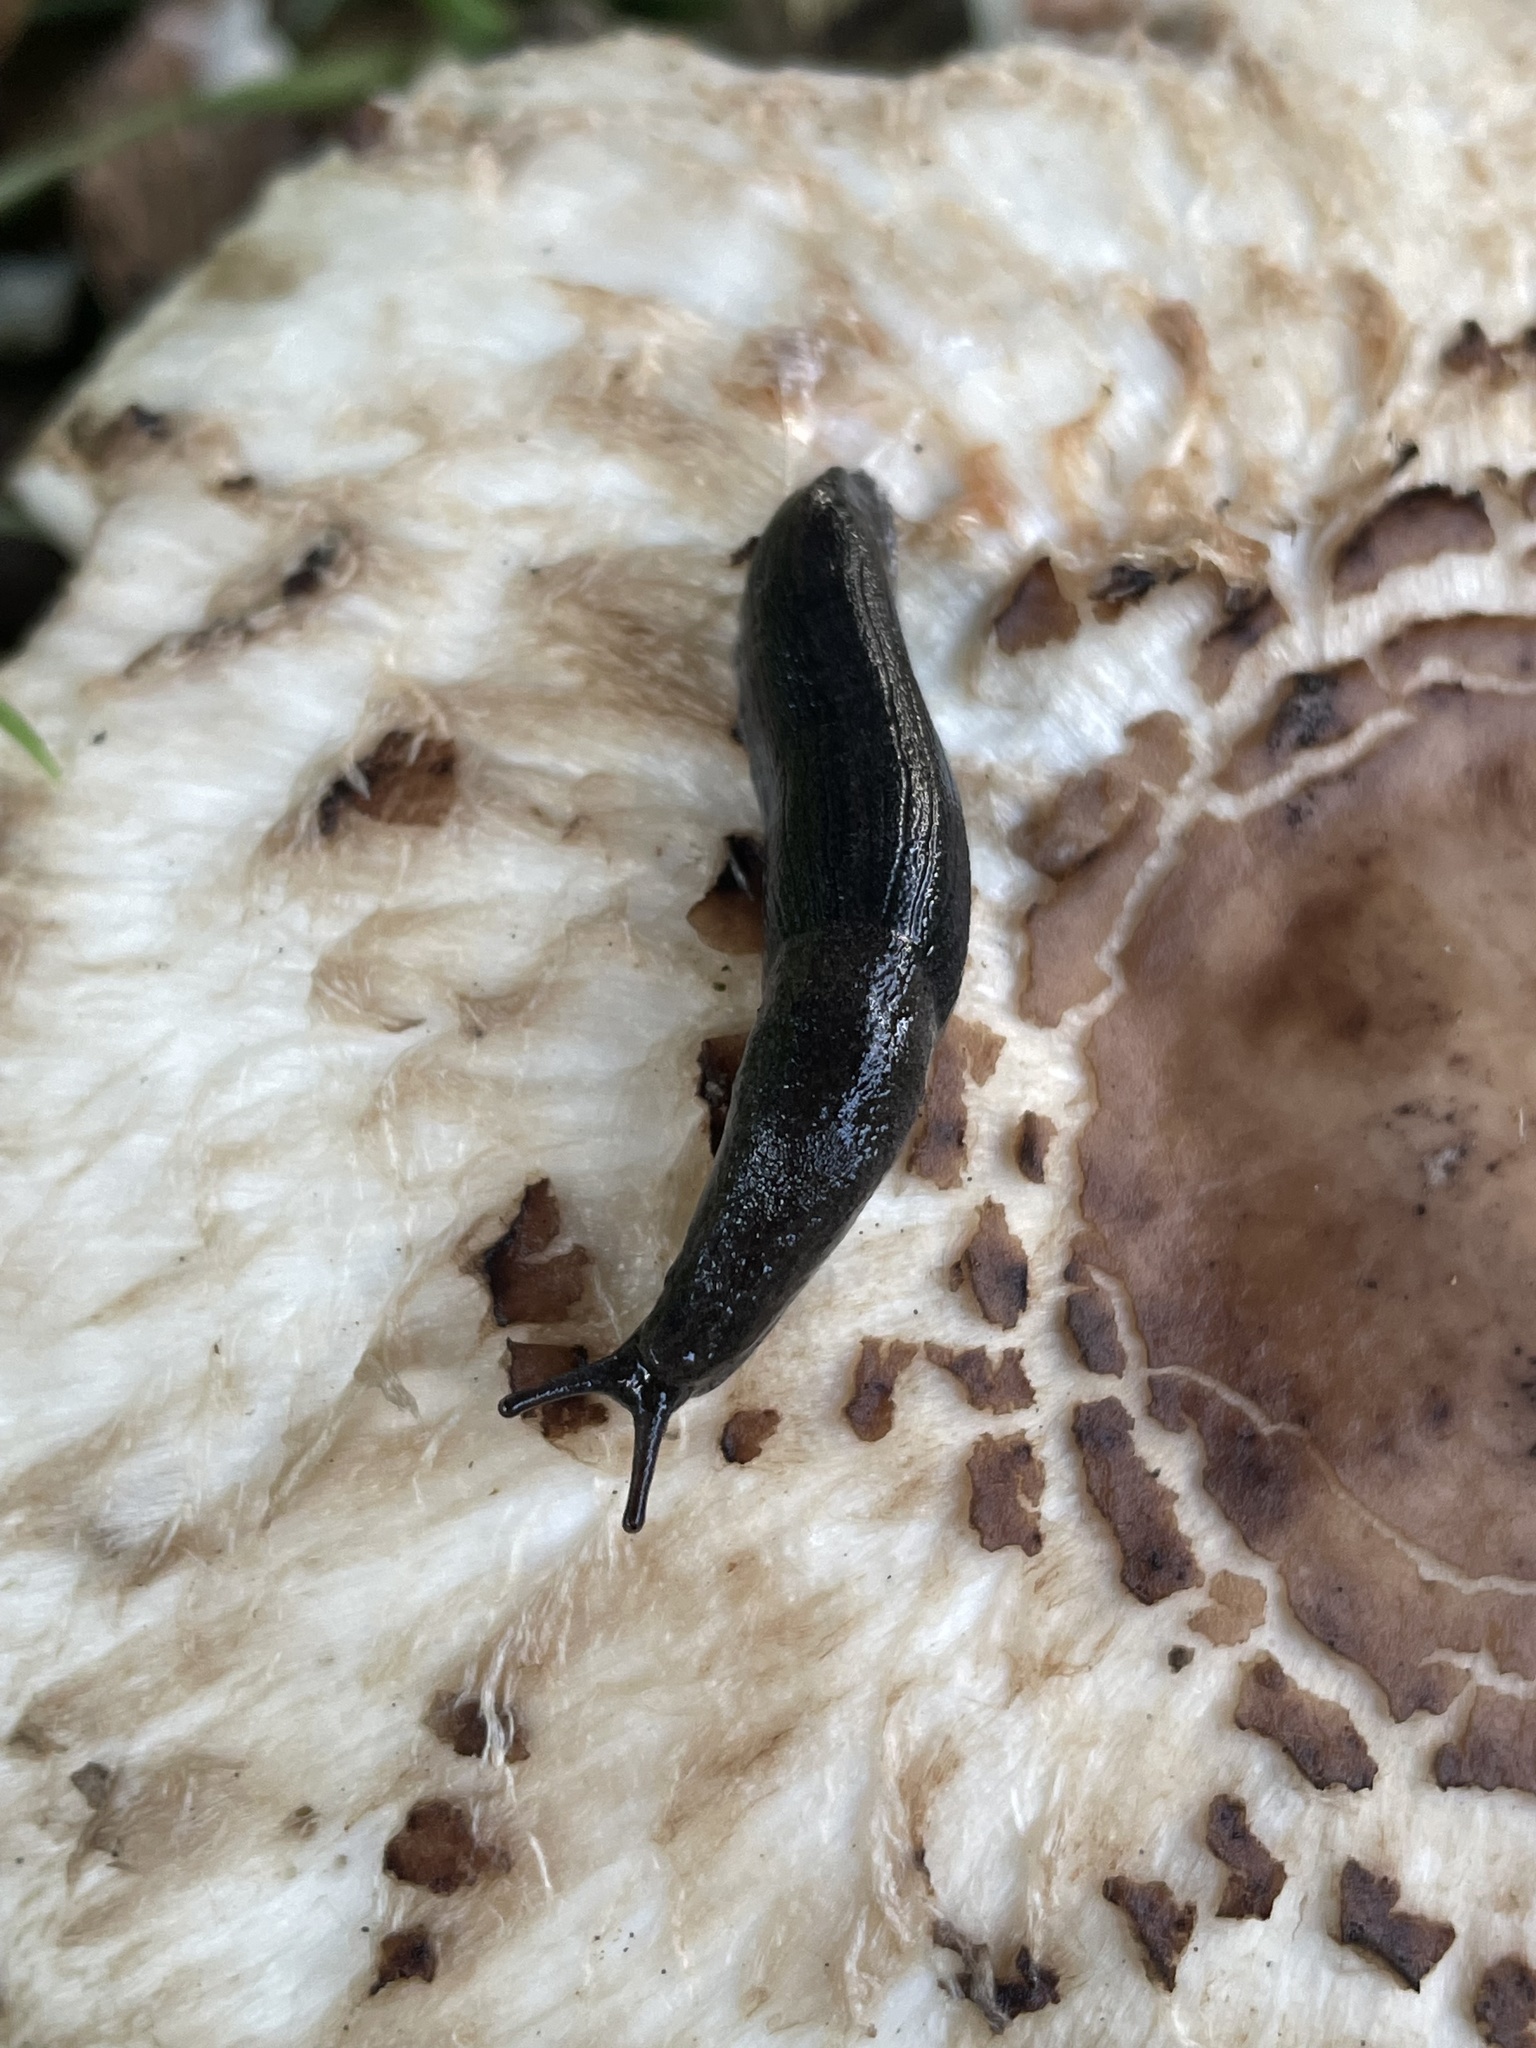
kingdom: Animalia
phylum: Mollusca
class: Gastropoda
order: Stylommatophora
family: Ariolimacidae
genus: Hesperarion
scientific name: Hesperarion niger
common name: Black western slug
